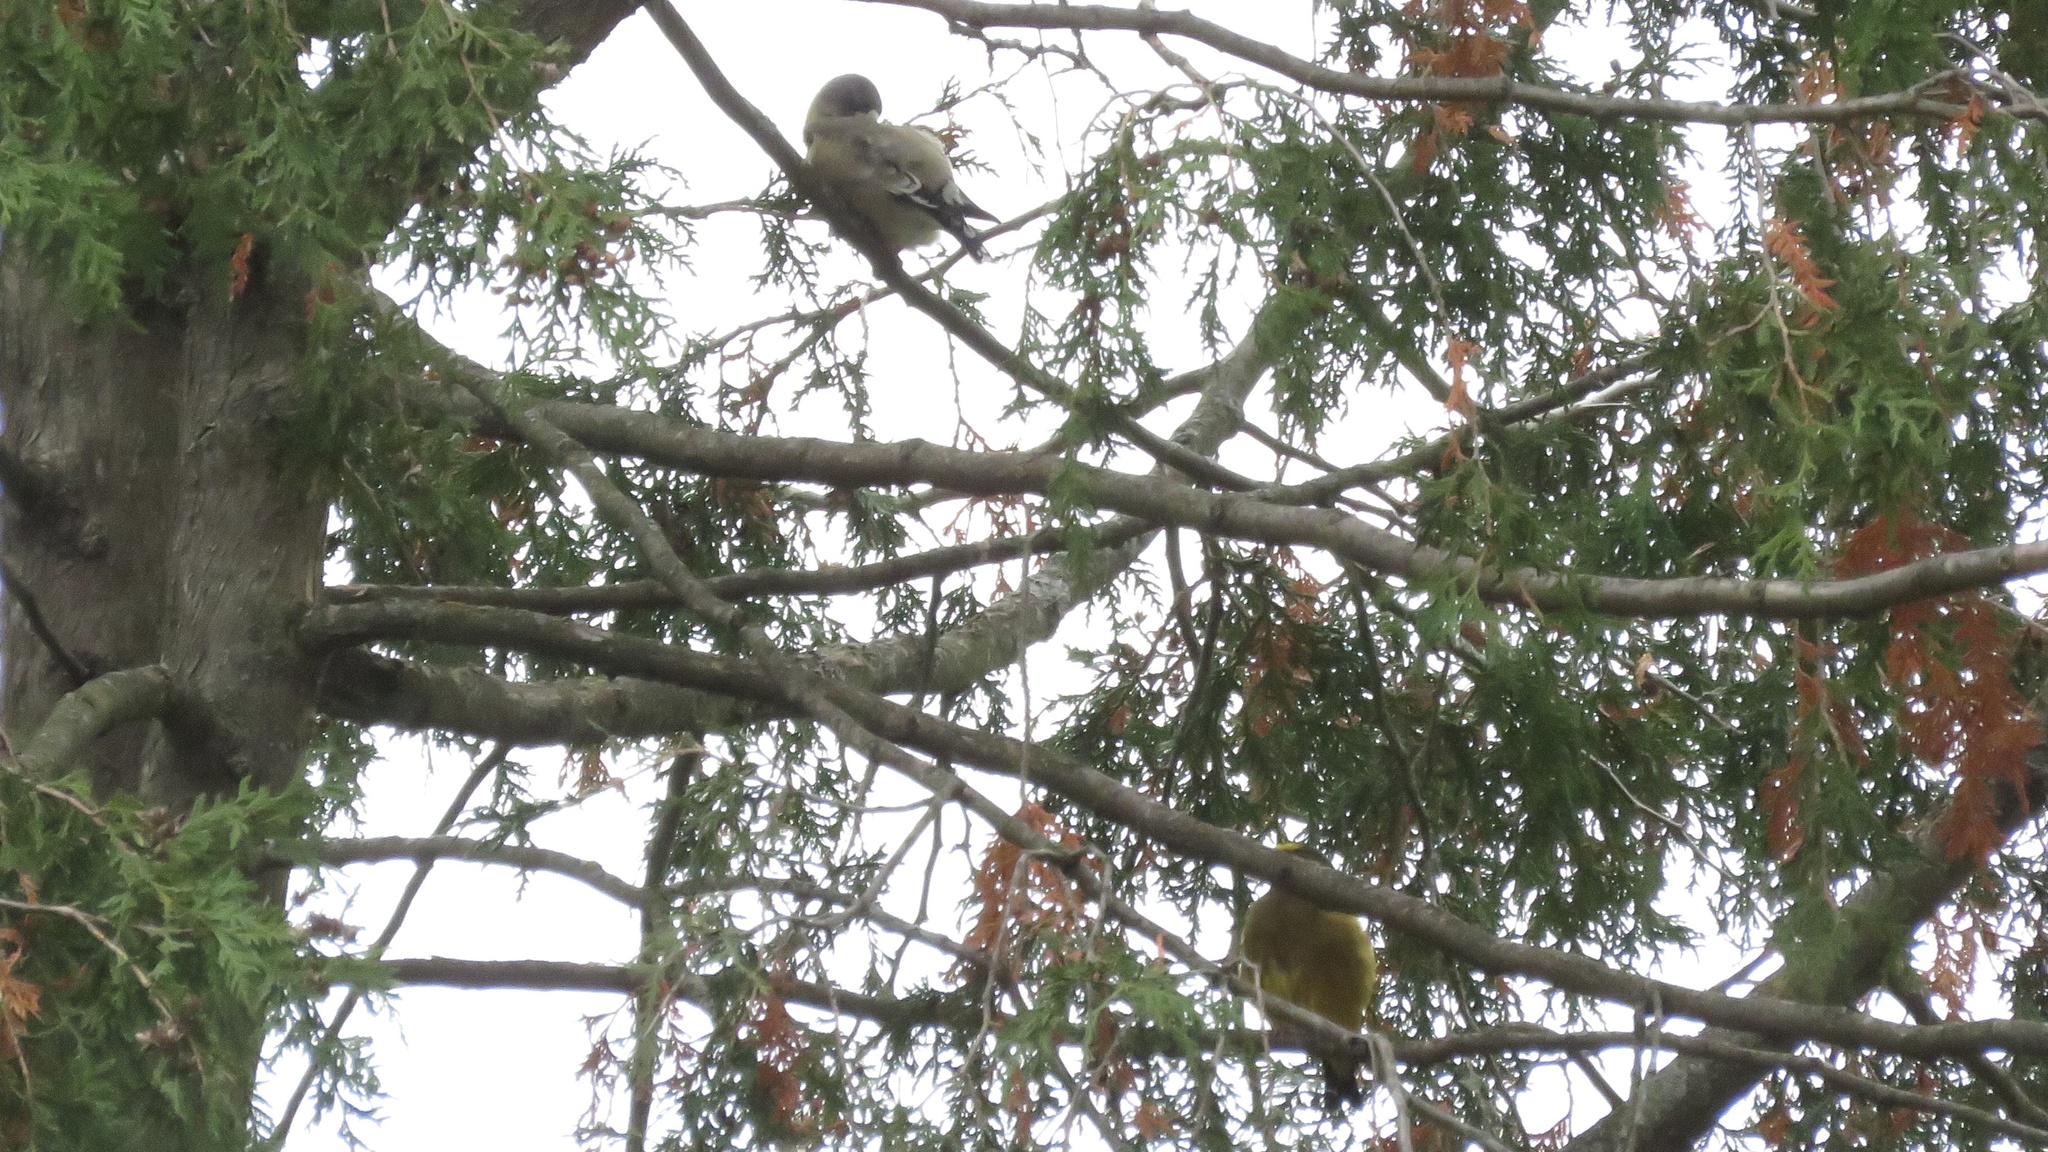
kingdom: Animalia
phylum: Chordata
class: Aves
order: Passeriformes
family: Fringillidae
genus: Hesperiphona
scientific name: Hesperiphona vespertina
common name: Evening grosbeak
